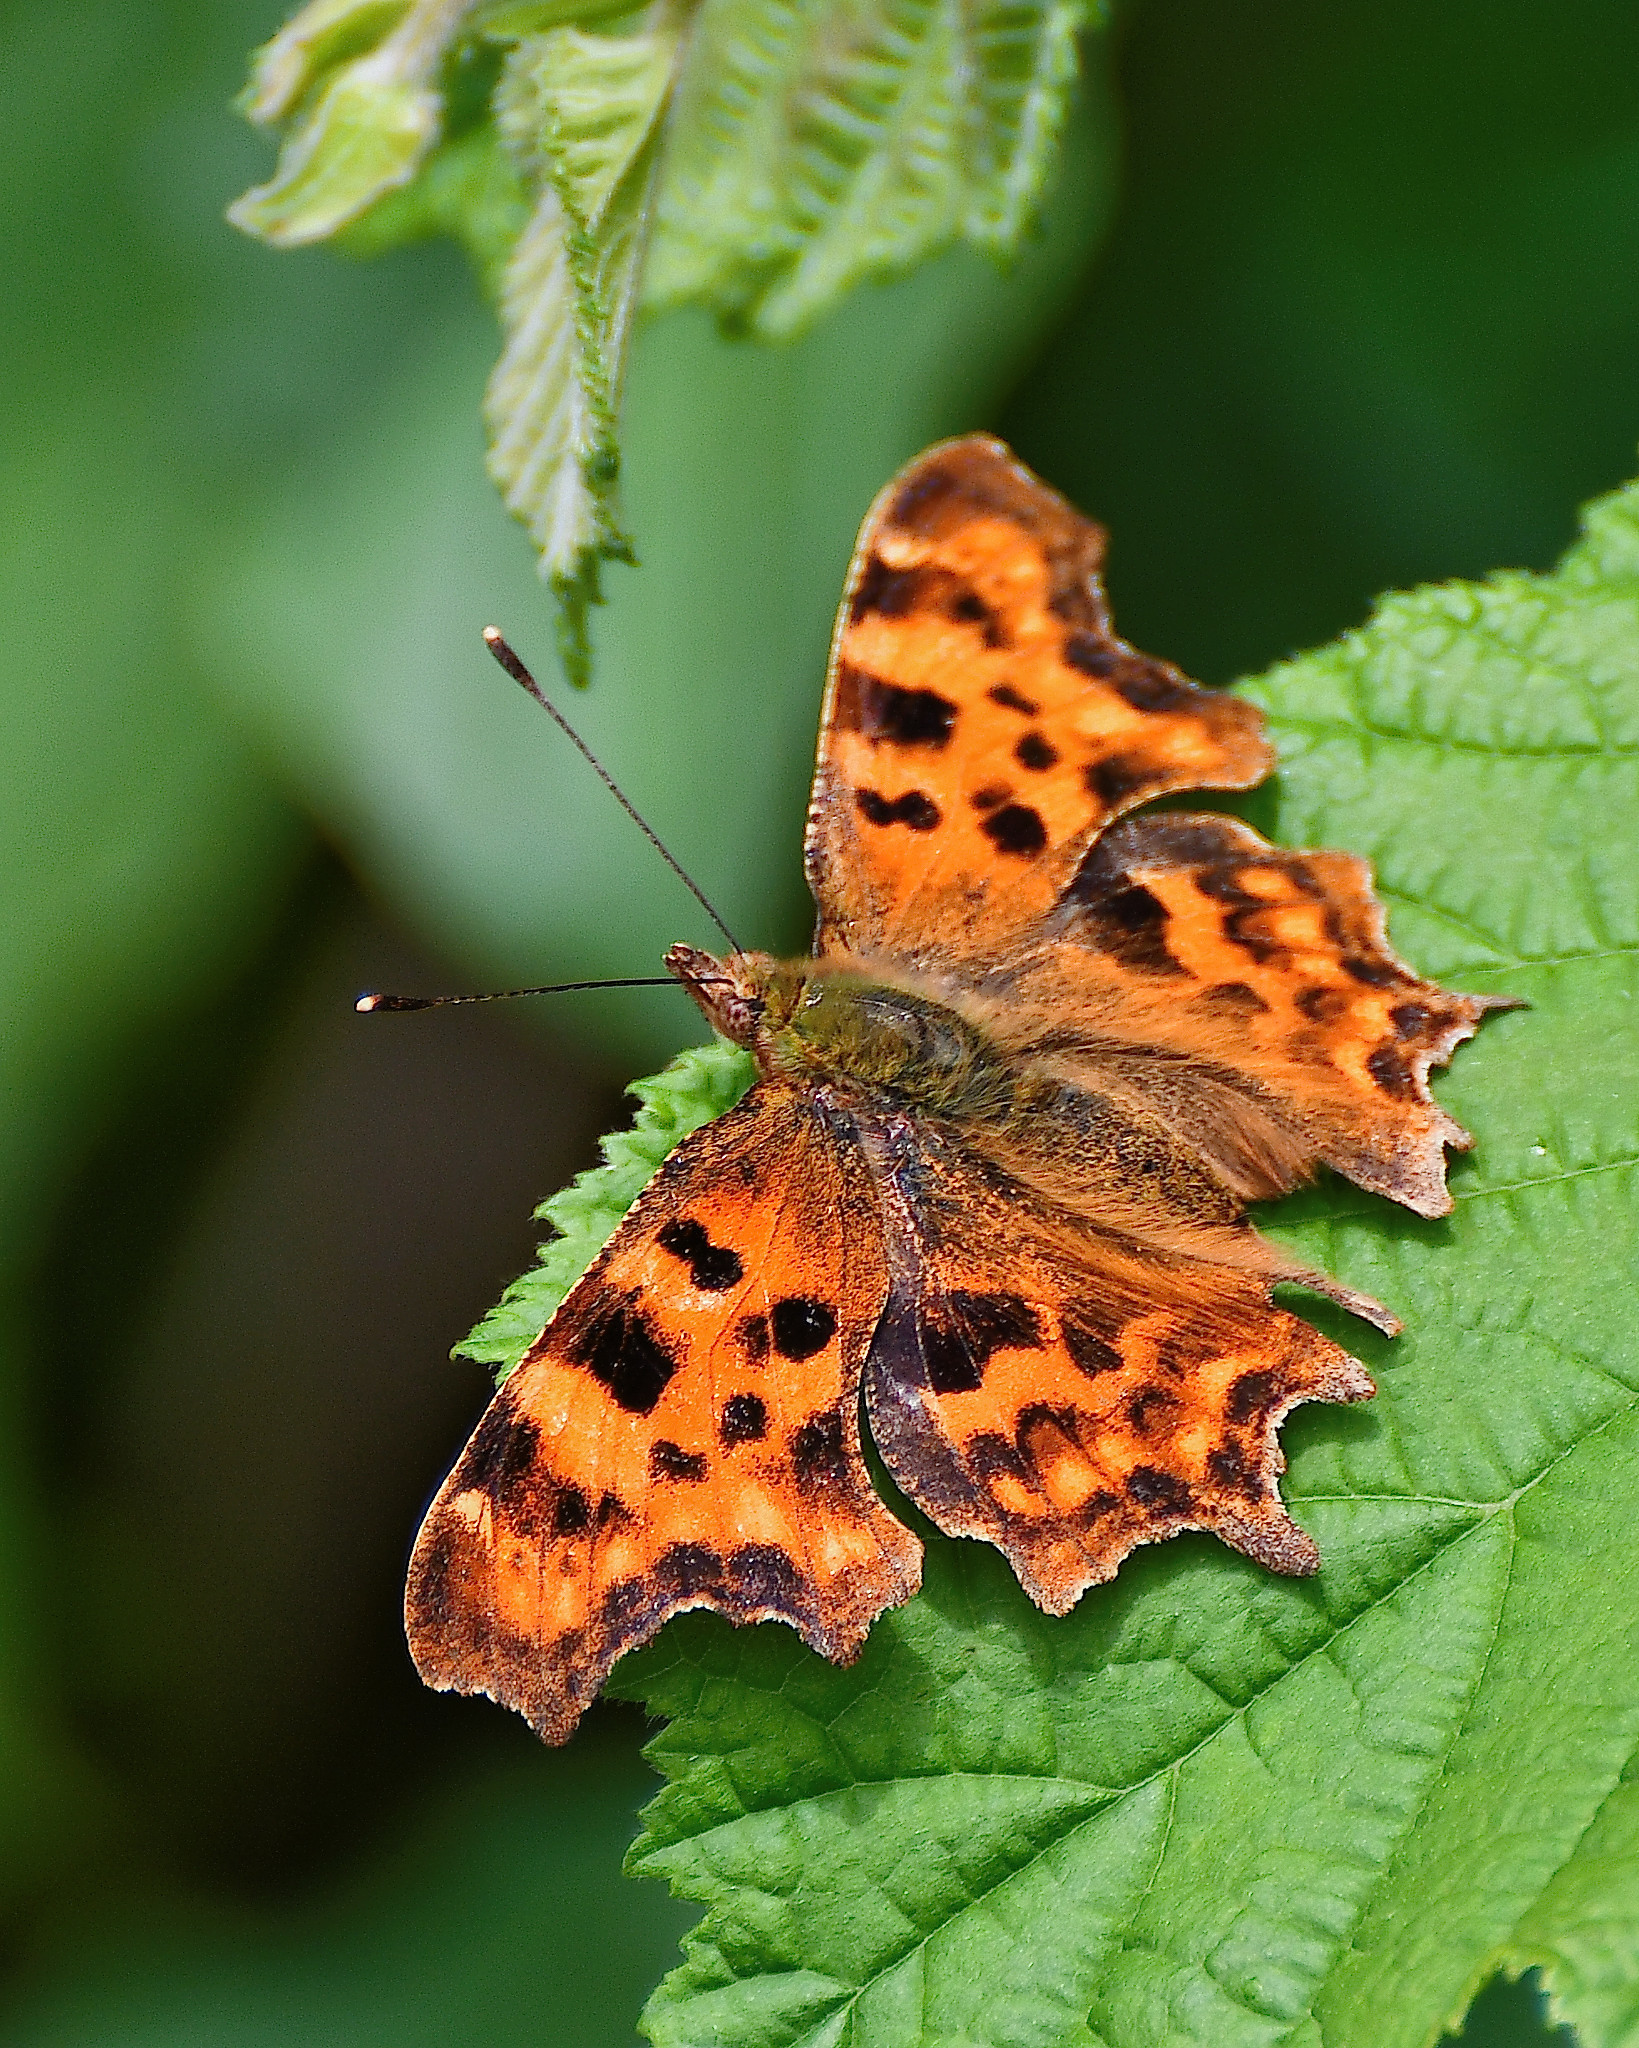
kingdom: Animalia
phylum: Arthropoda
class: Insecta
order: Lepidoptera
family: Nymphalidae
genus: Polygonia
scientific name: Polygonia c-album
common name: Comma
